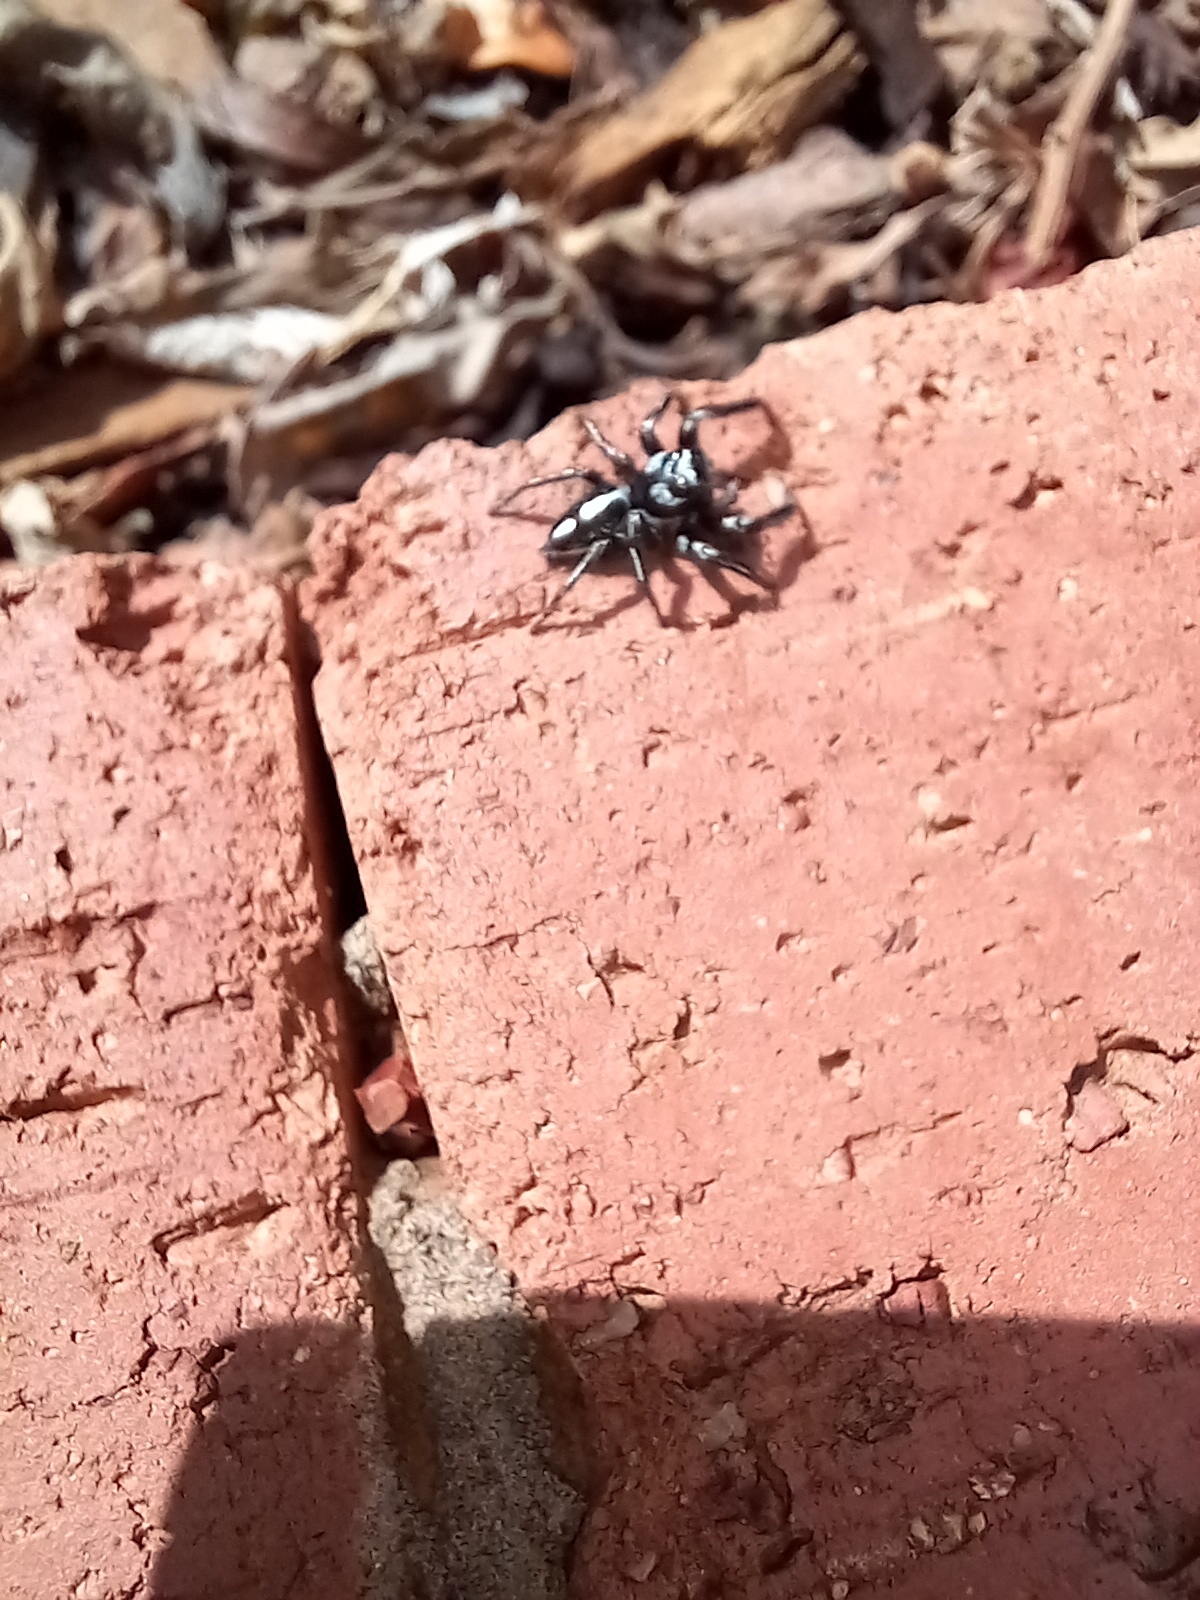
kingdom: Animalia
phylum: Arthropoda
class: Arachnida
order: Araneae
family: Salticidae
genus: Hyllus
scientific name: Hyllus argyrotoxus
